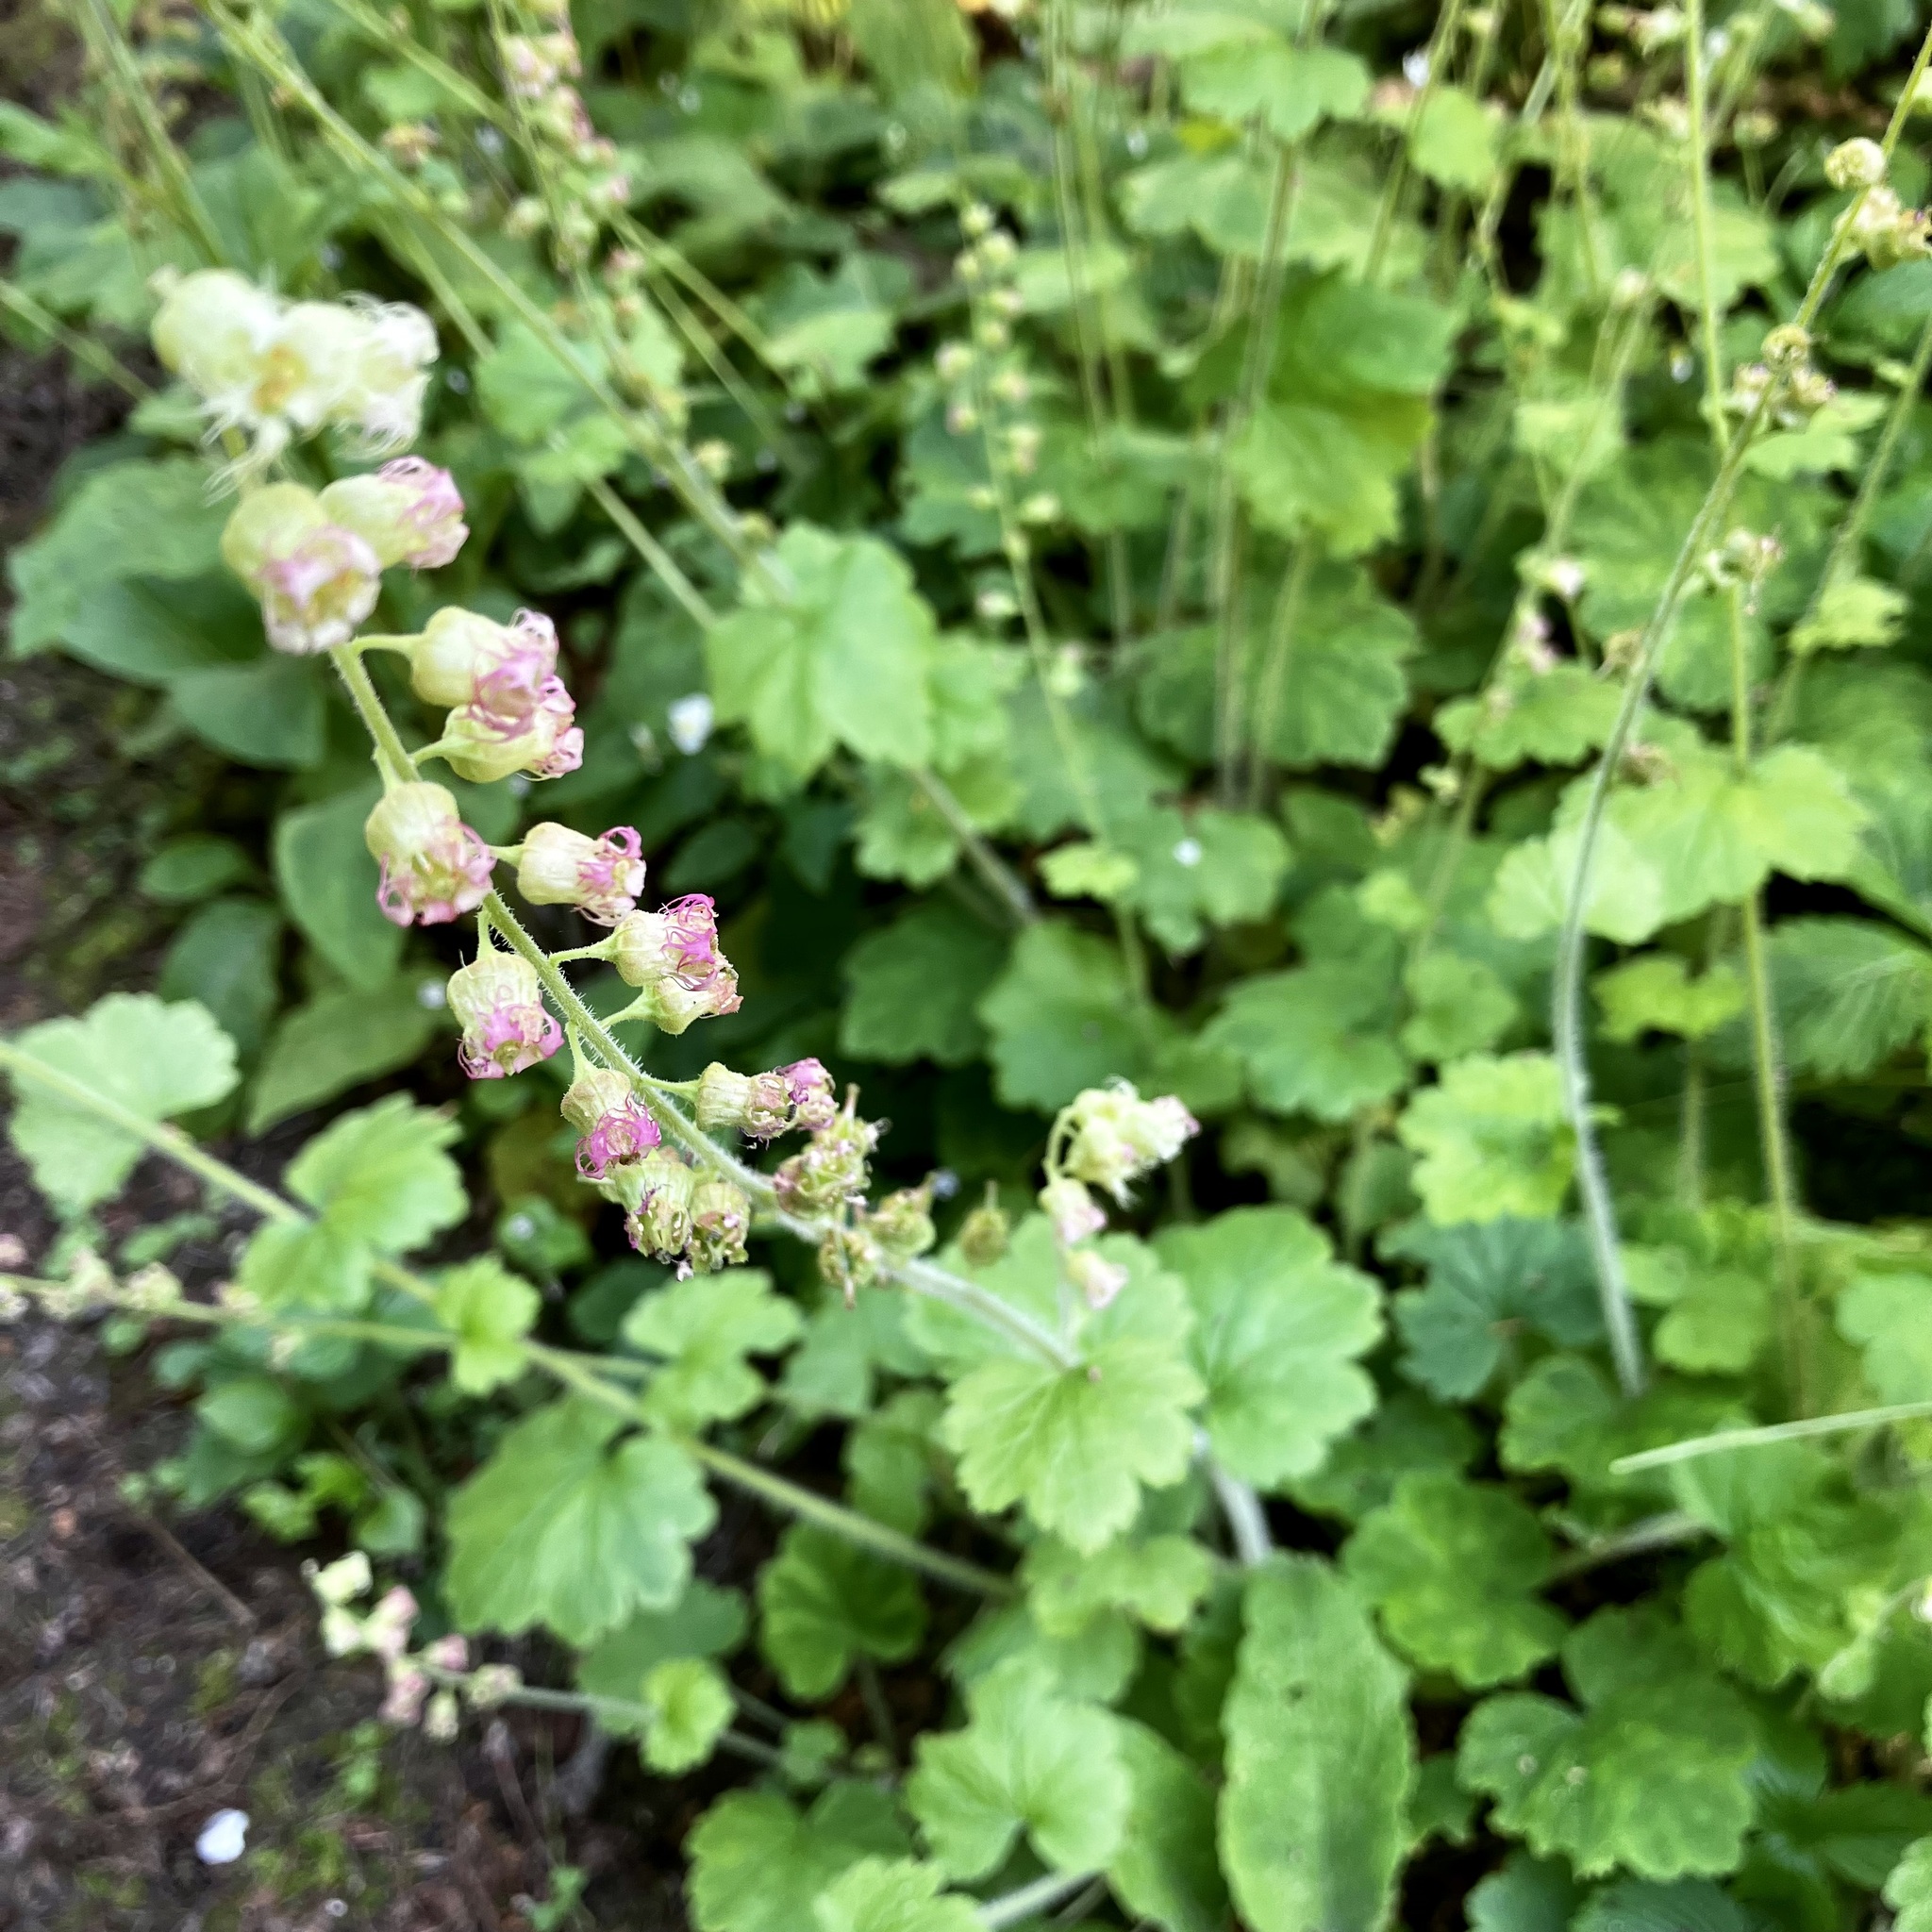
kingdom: Plantae
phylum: Tracheophyta
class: Magnoliopsida
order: Saxifragales
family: Saxifragaceae
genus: Tellima
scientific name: Tellima grandiflora
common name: Fringecups
